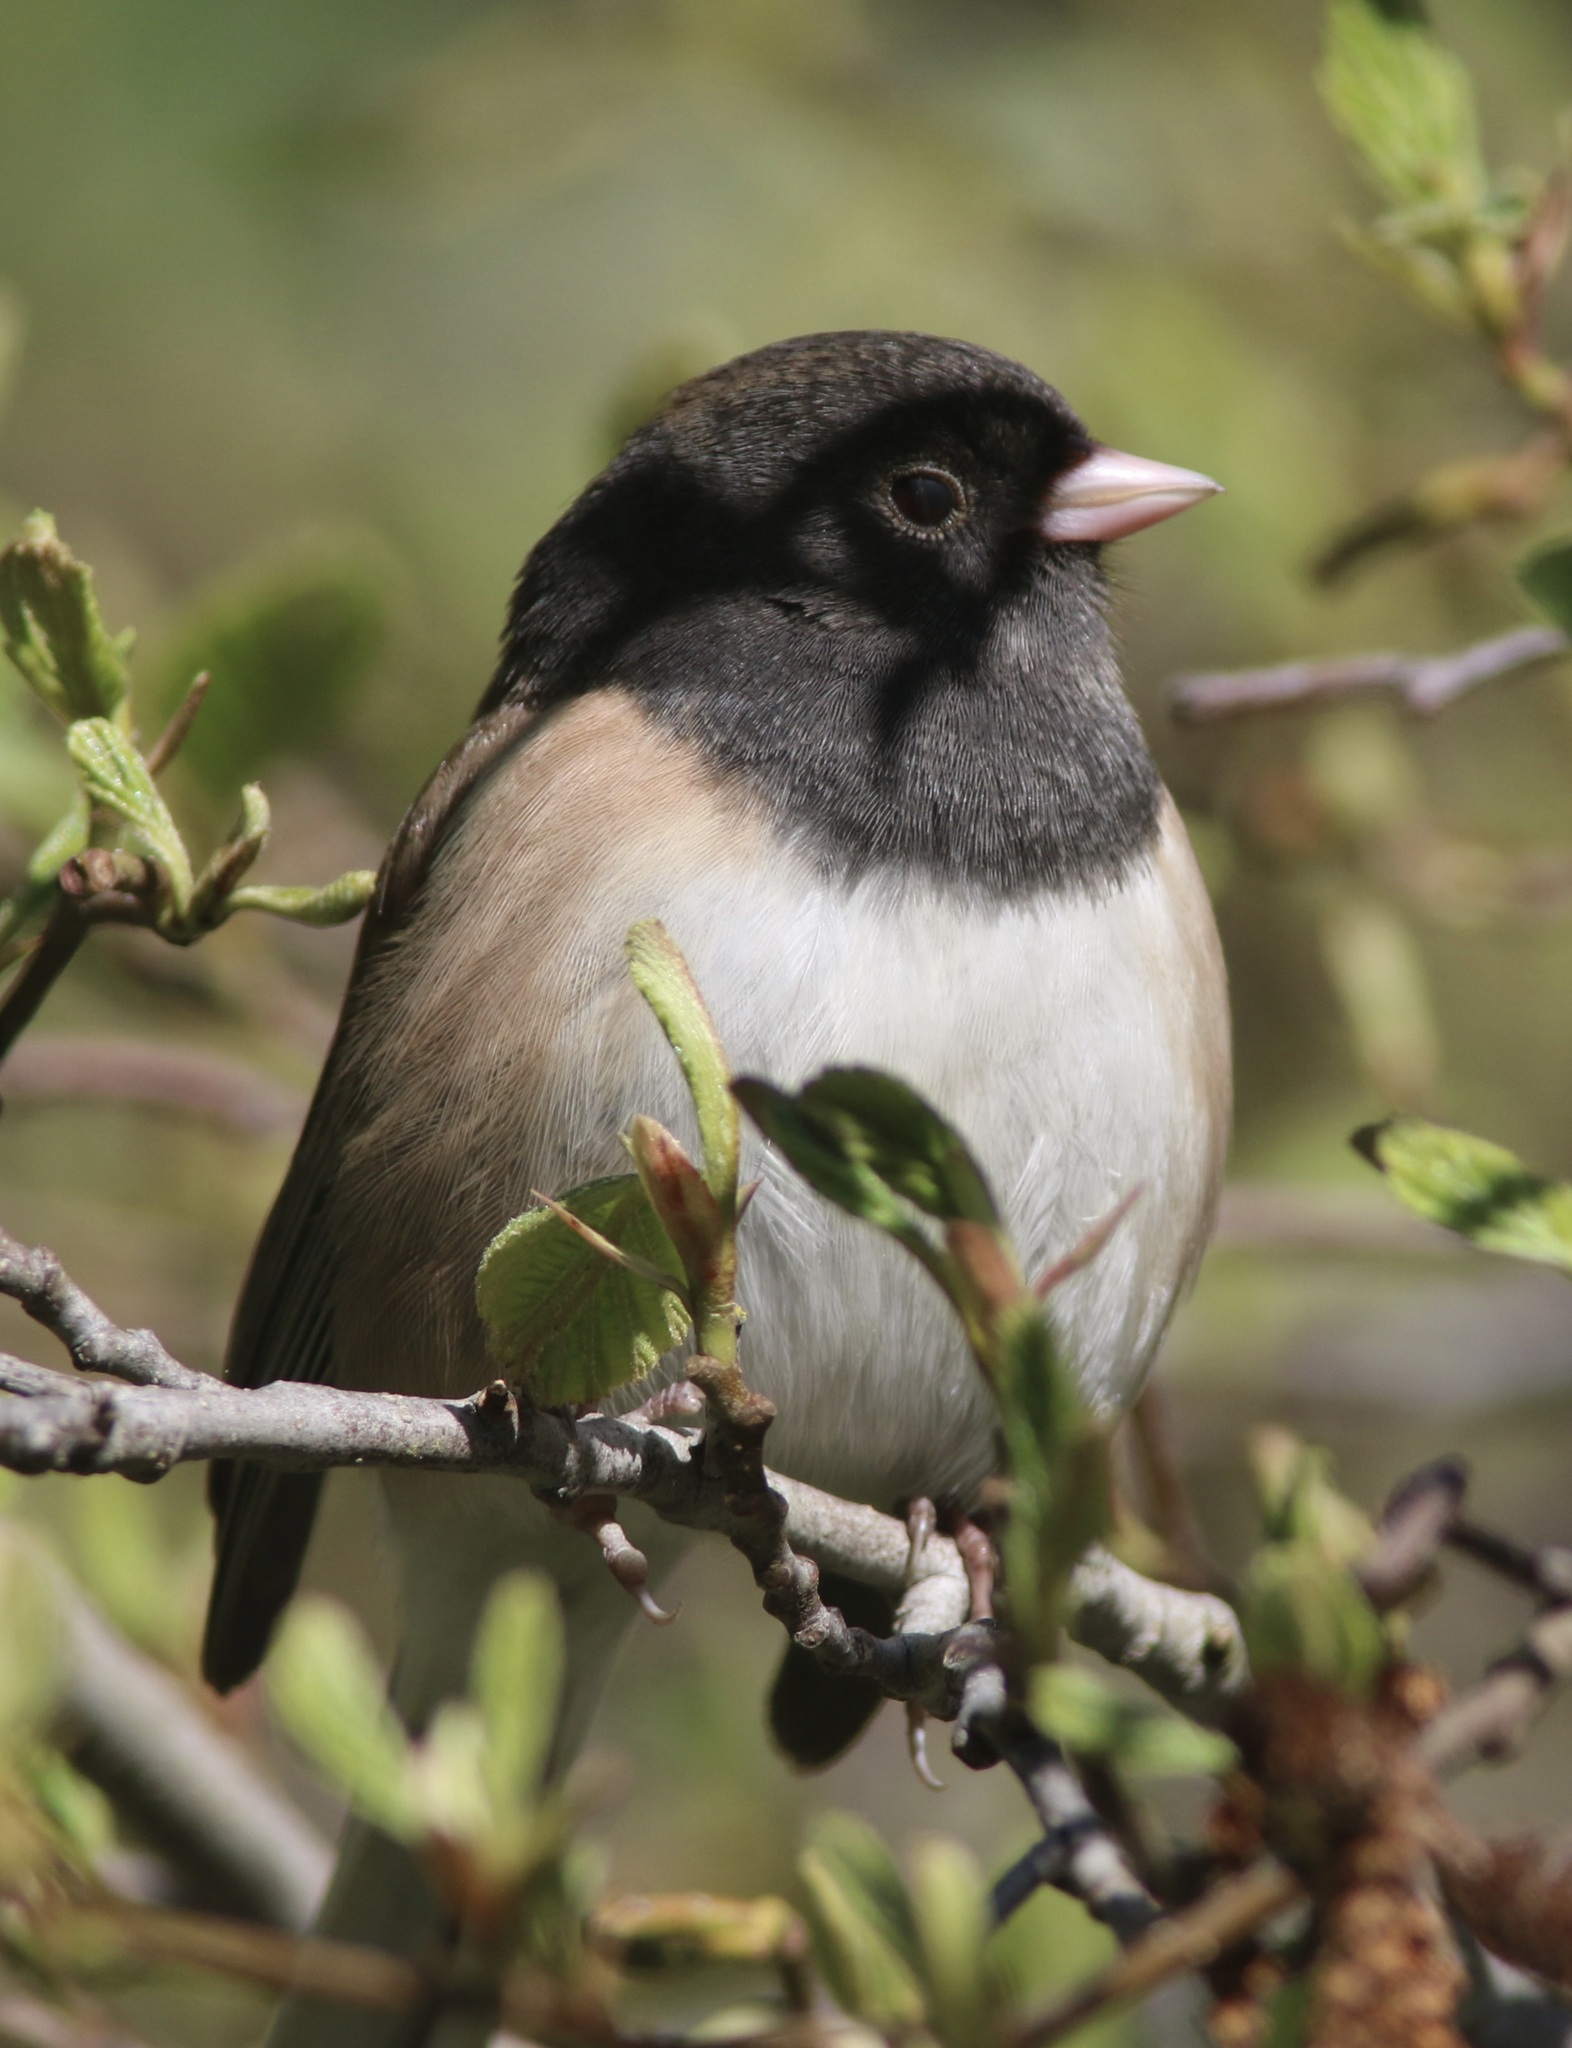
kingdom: Animalia
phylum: Chordata
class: Aves
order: Passeriformes
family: Passerellidae
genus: Junco
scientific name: Junco hyemalis
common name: Dark-eyed junco
